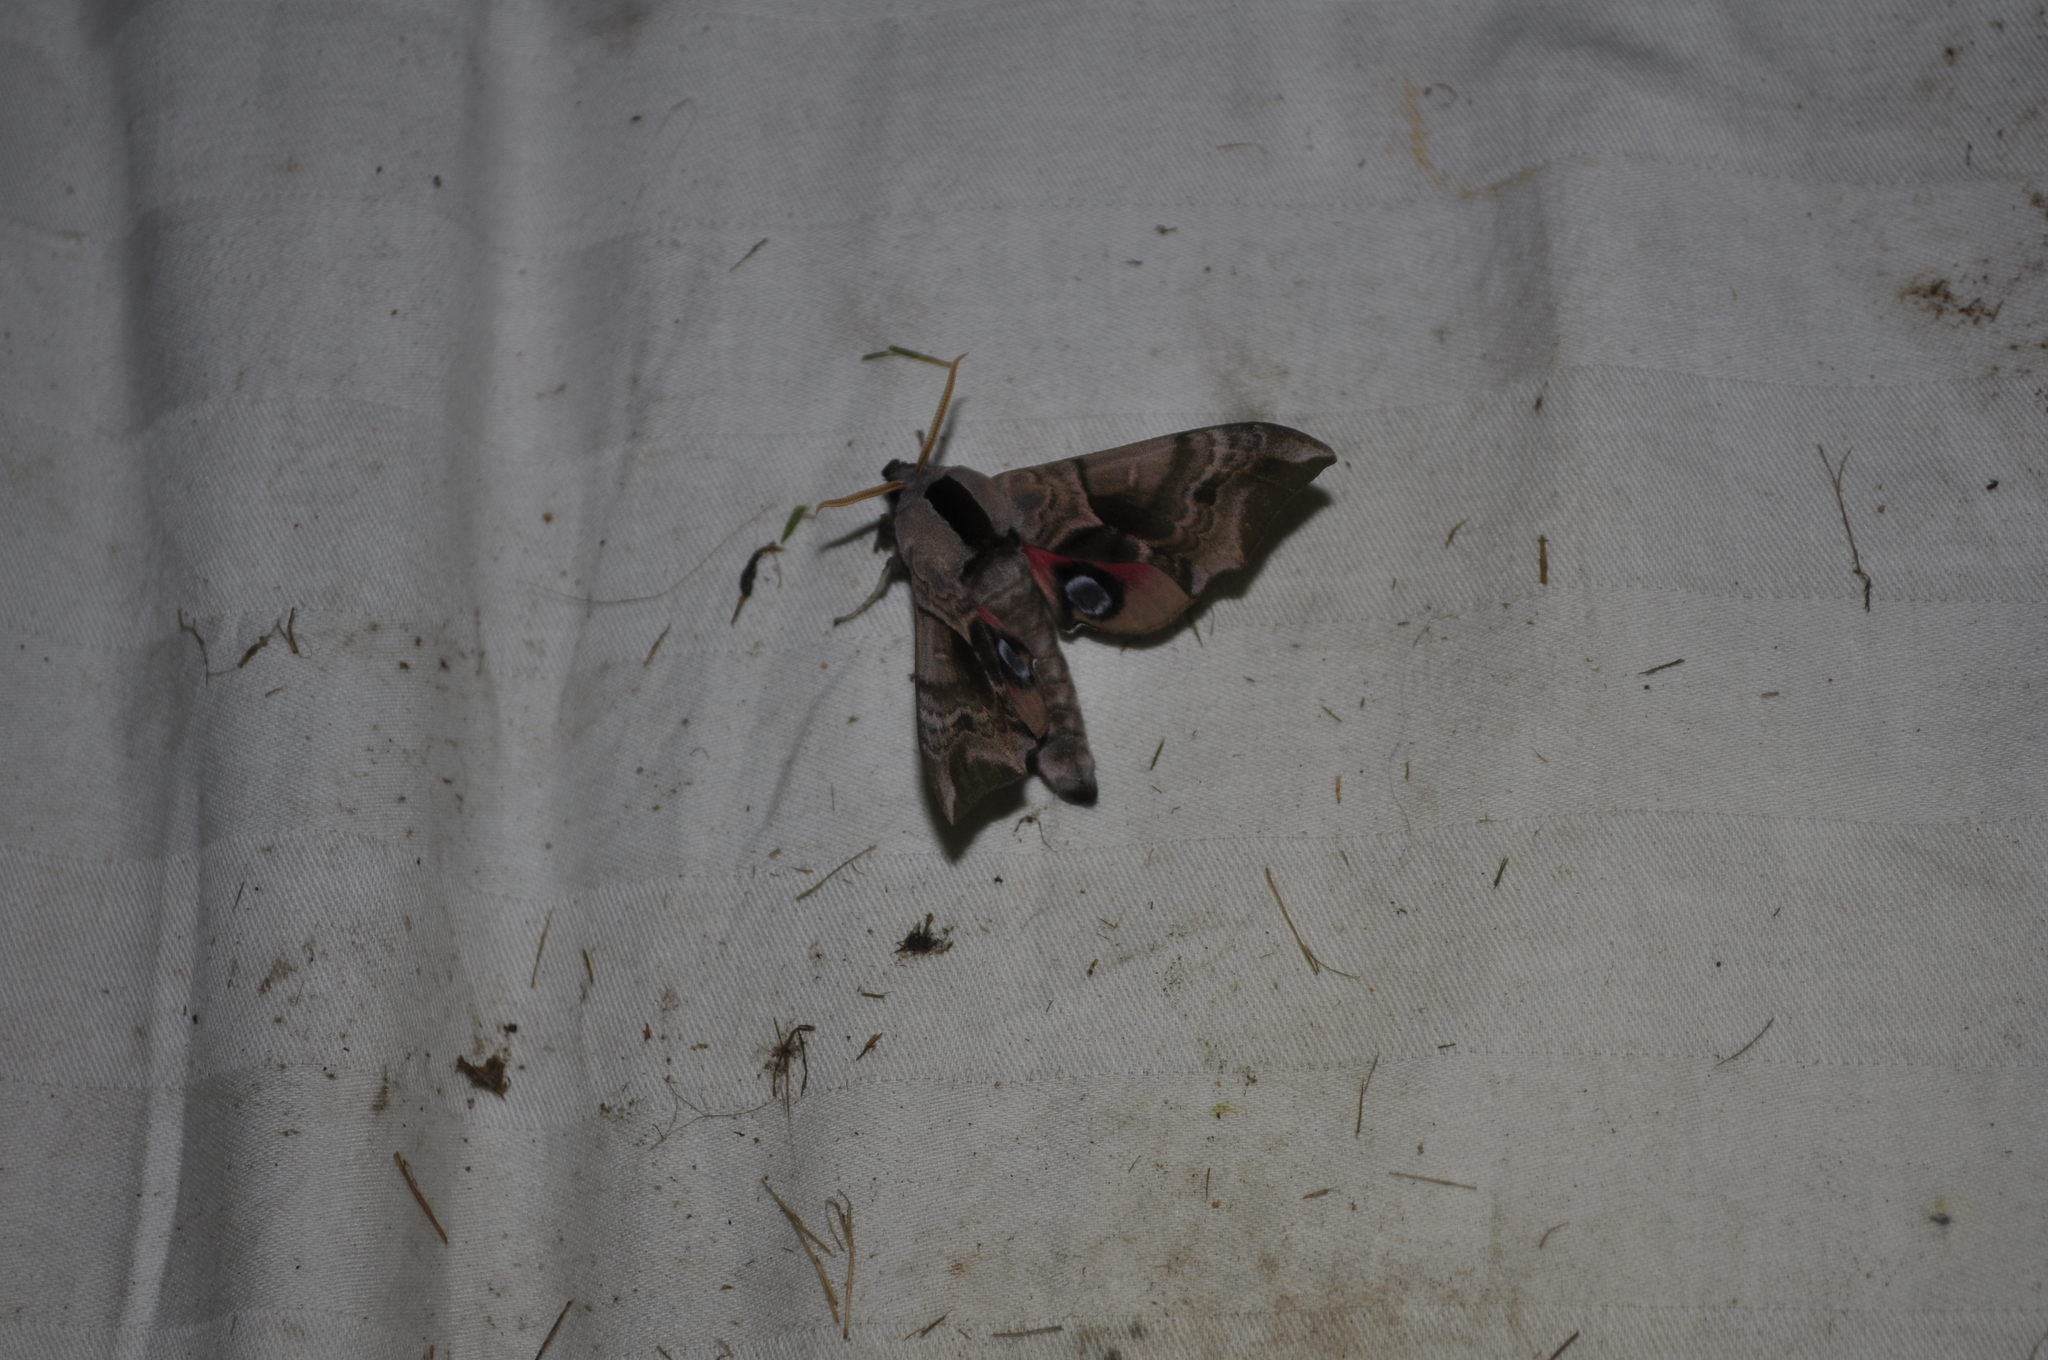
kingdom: Animalia
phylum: Arthropoda
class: Insecta
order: Lepidoptera
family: Sphingidae
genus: Smerinthus
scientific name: Smerinthus ocellata
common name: Eyed hawk-moth
